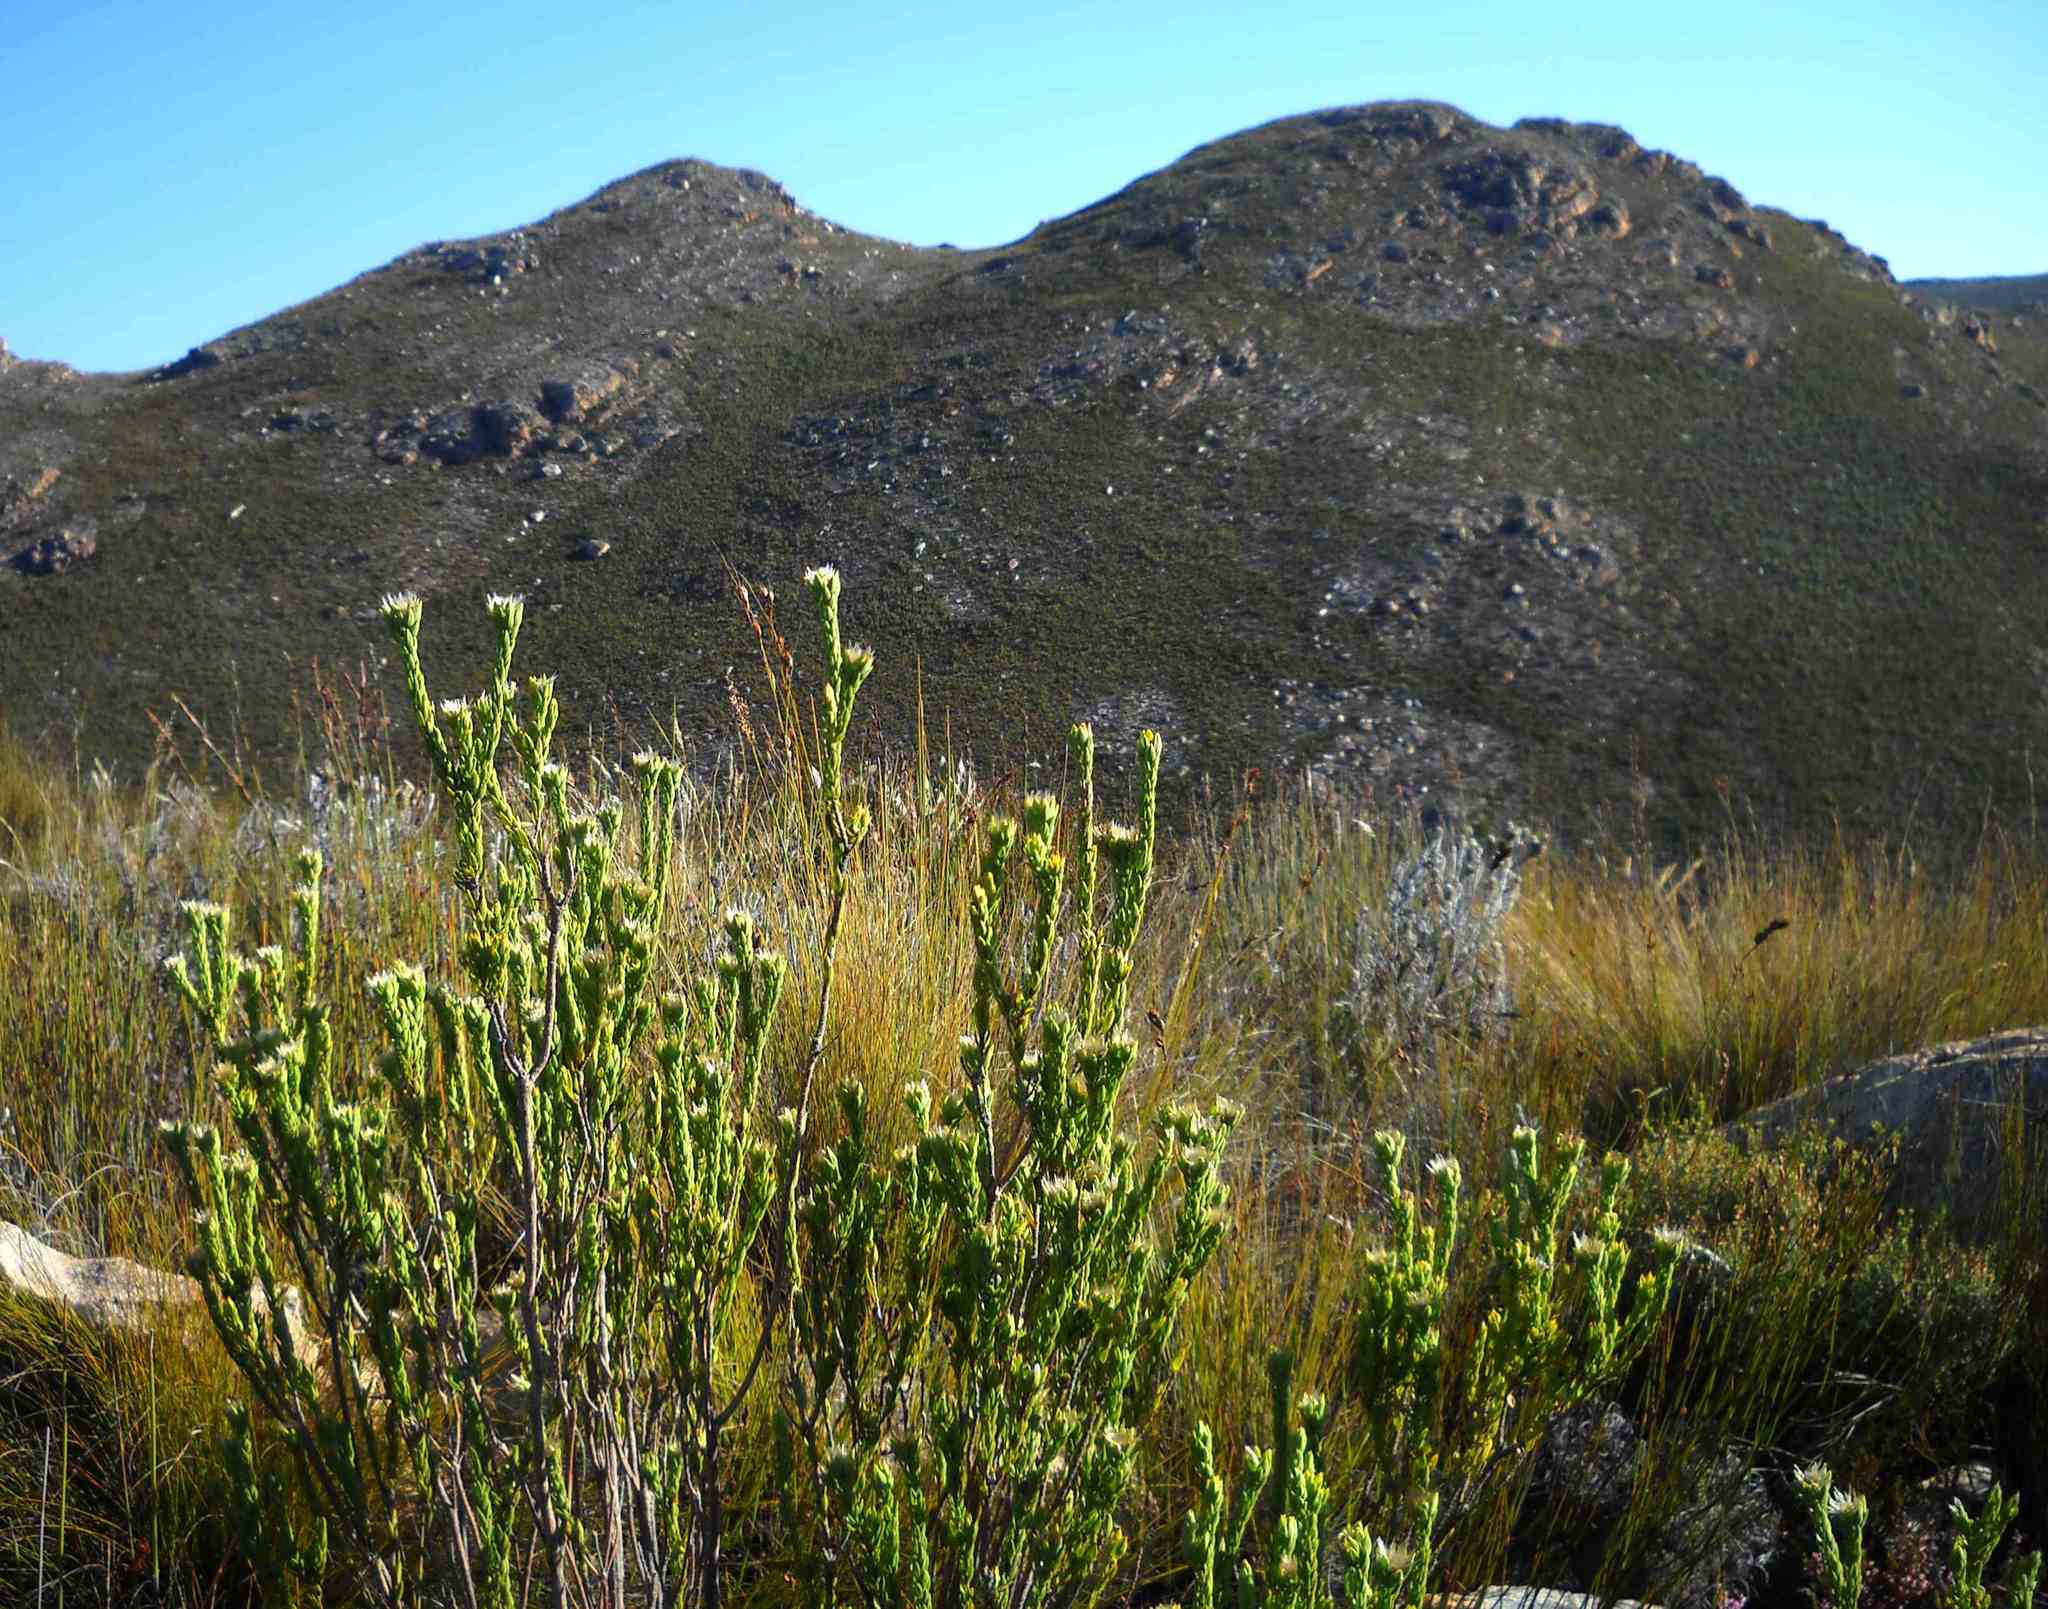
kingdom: Plantae
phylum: Tracheophyta
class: Magnoliopsida
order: Asterales
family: Asteraceae
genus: Oedera
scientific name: Oedera calycina
